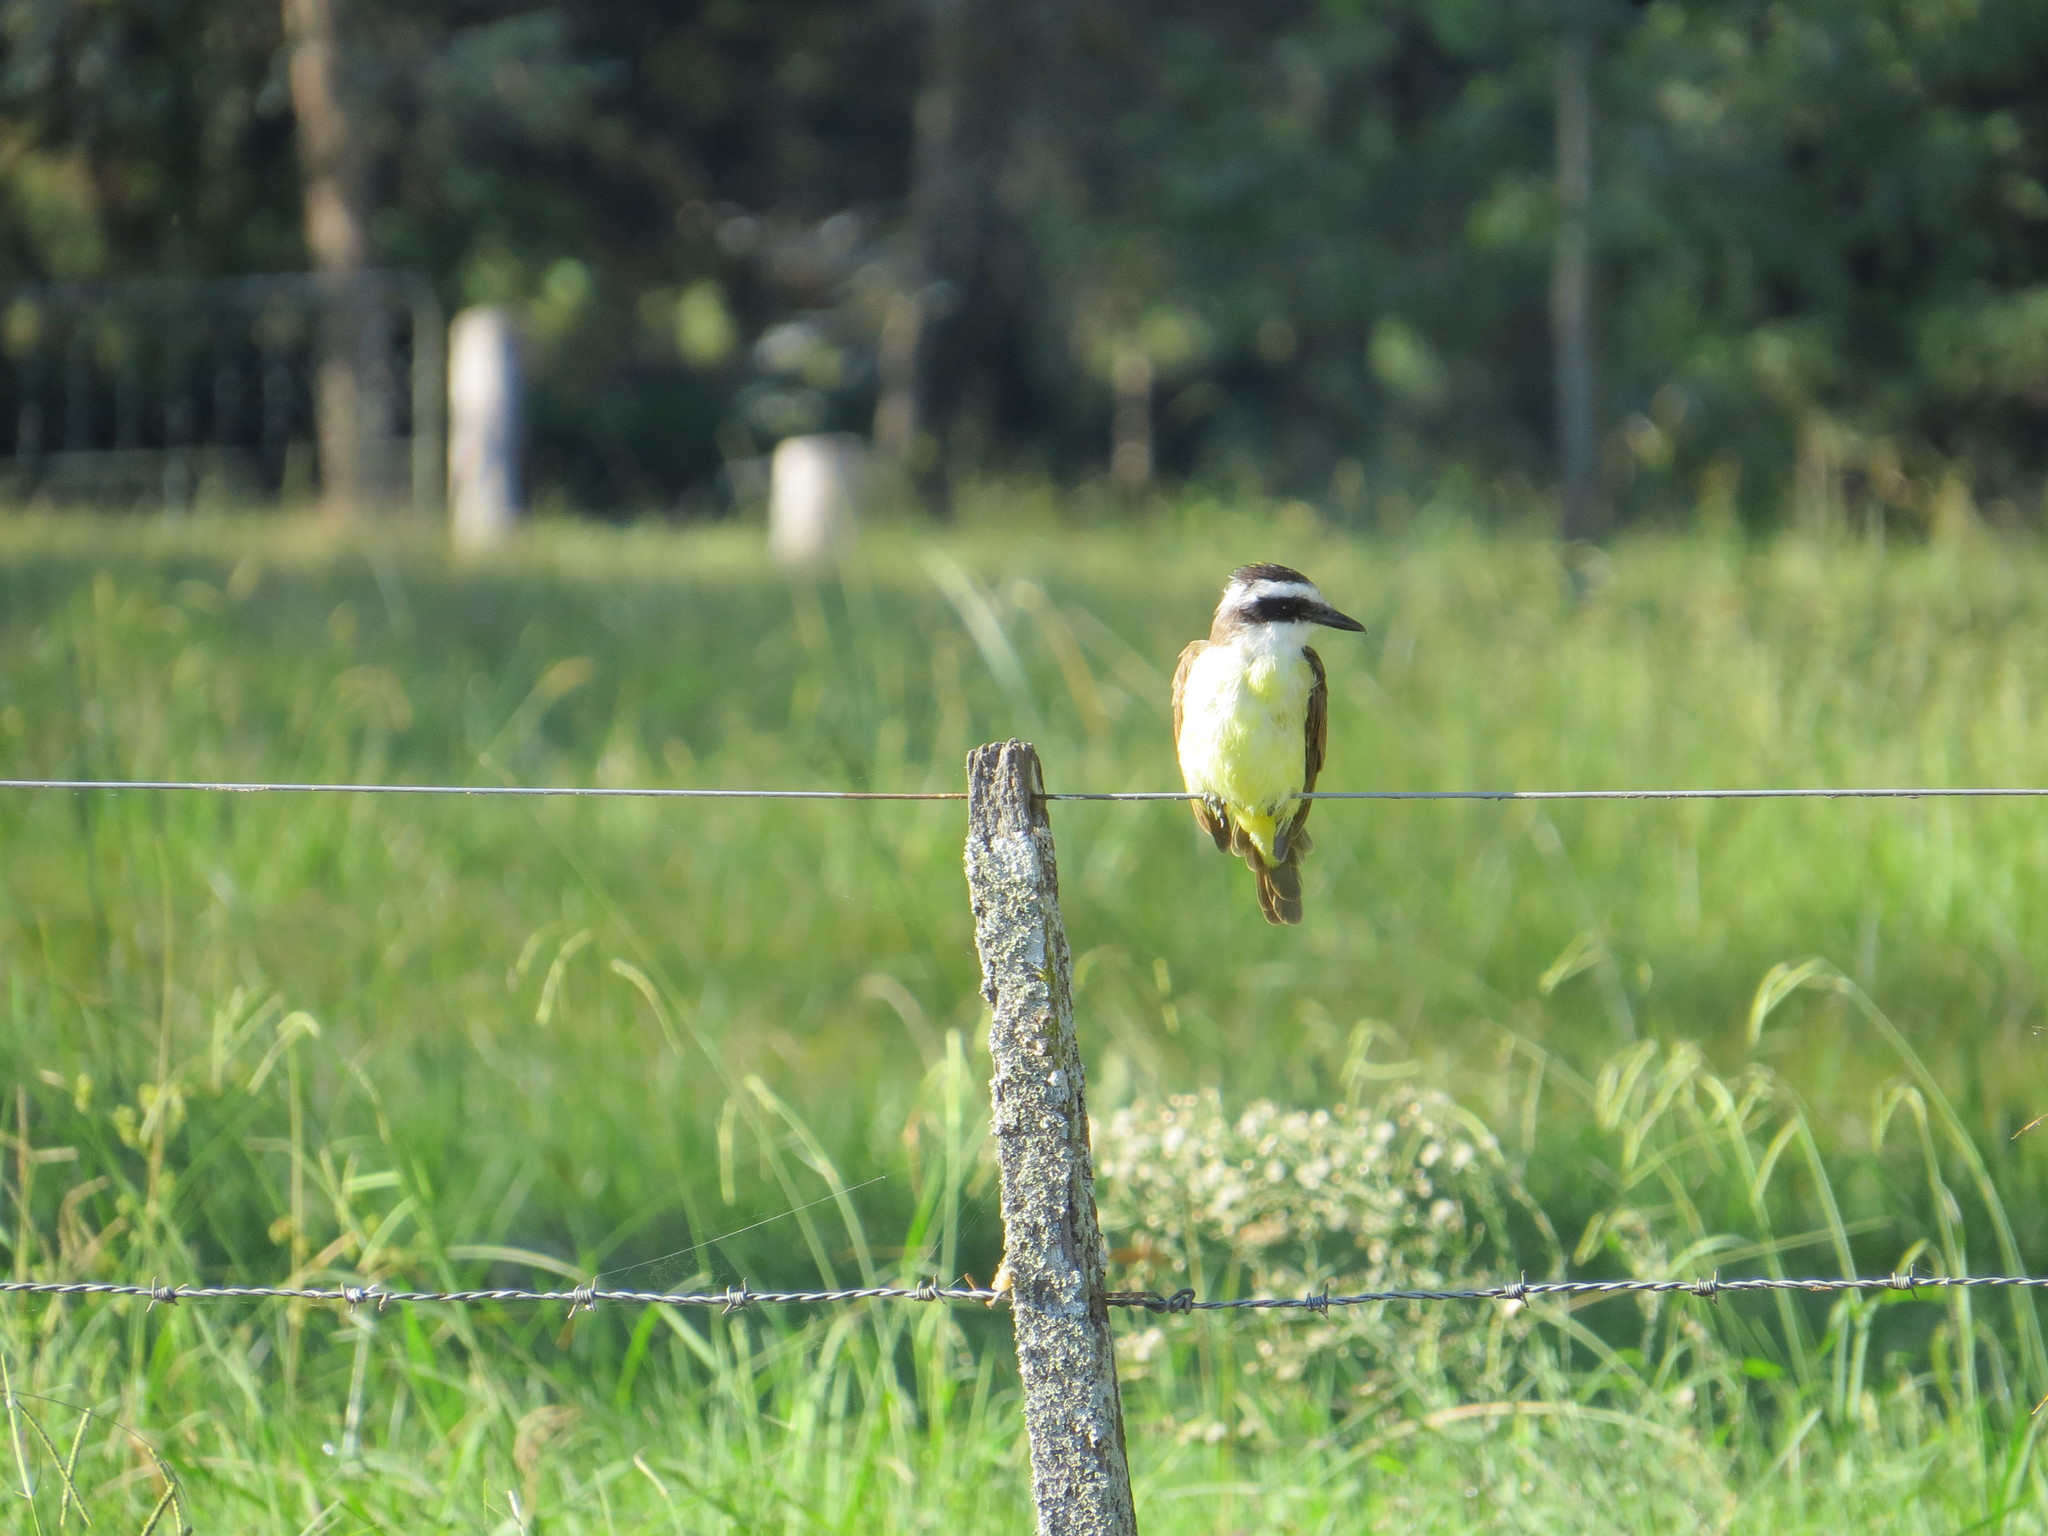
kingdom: Animalia
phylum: Chordata
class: Aves
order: Passeriformes
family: Tyrannidae
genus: Pitangus
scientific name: Pitangus sulphuratus
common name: Great kiskadee
